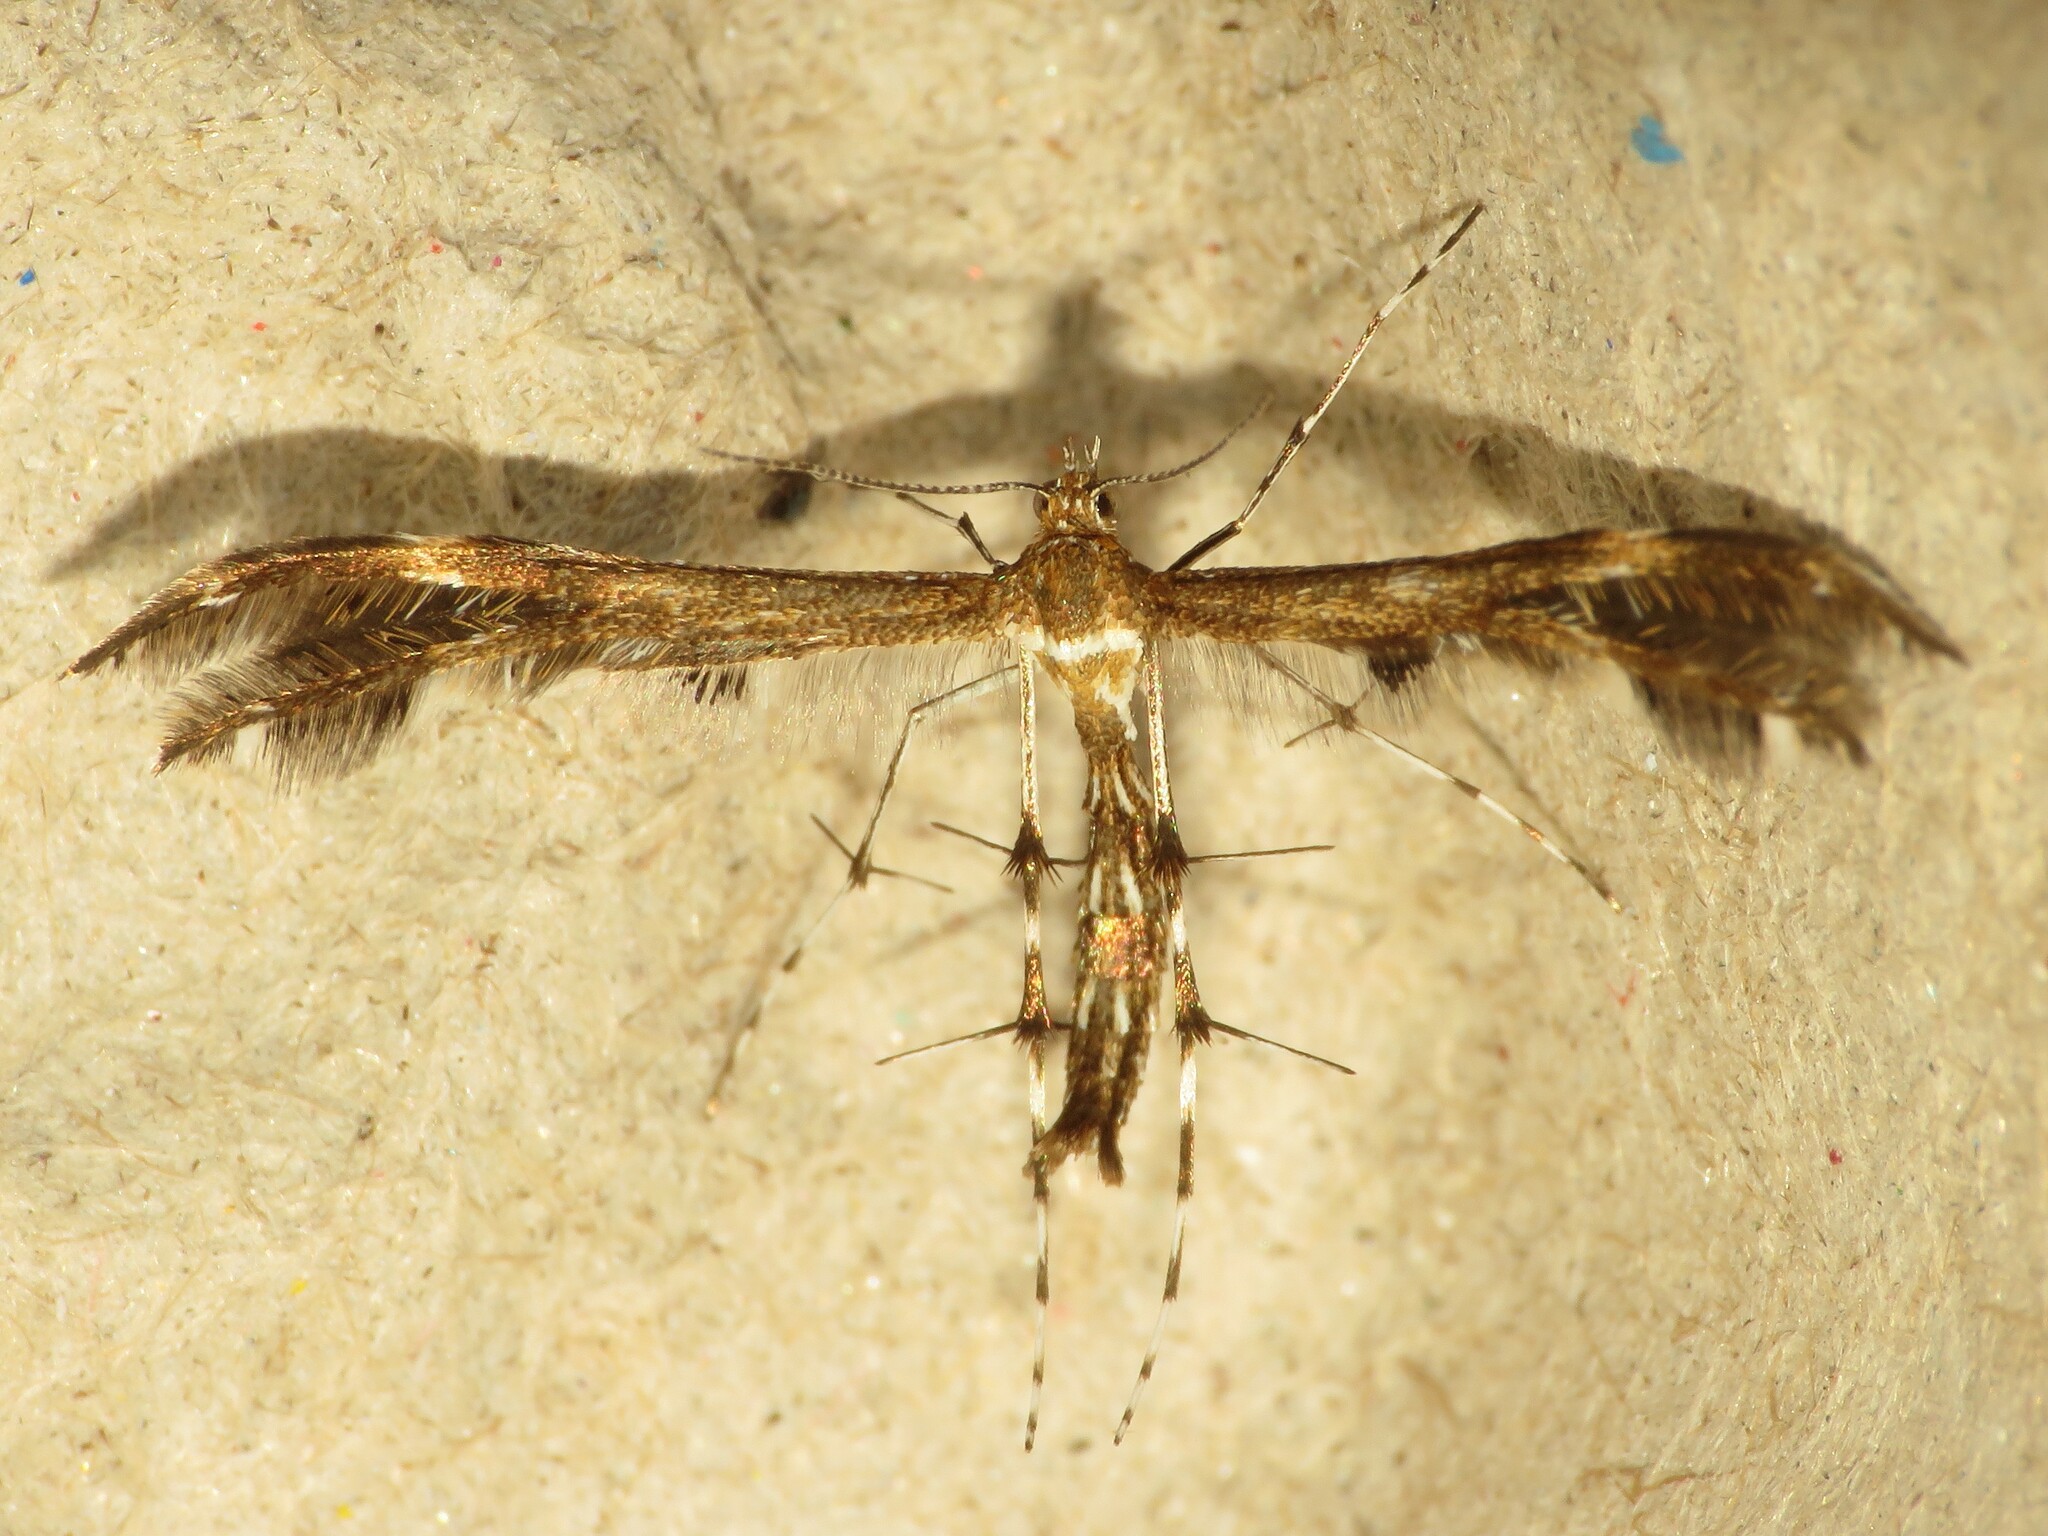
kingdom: Animalia
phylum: Arthropoda
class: Insecta
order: Lepidoptera
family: Pterophoridae
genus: Dejongia
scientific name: Dejongia lobidactylus
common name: Lobed plume moth
